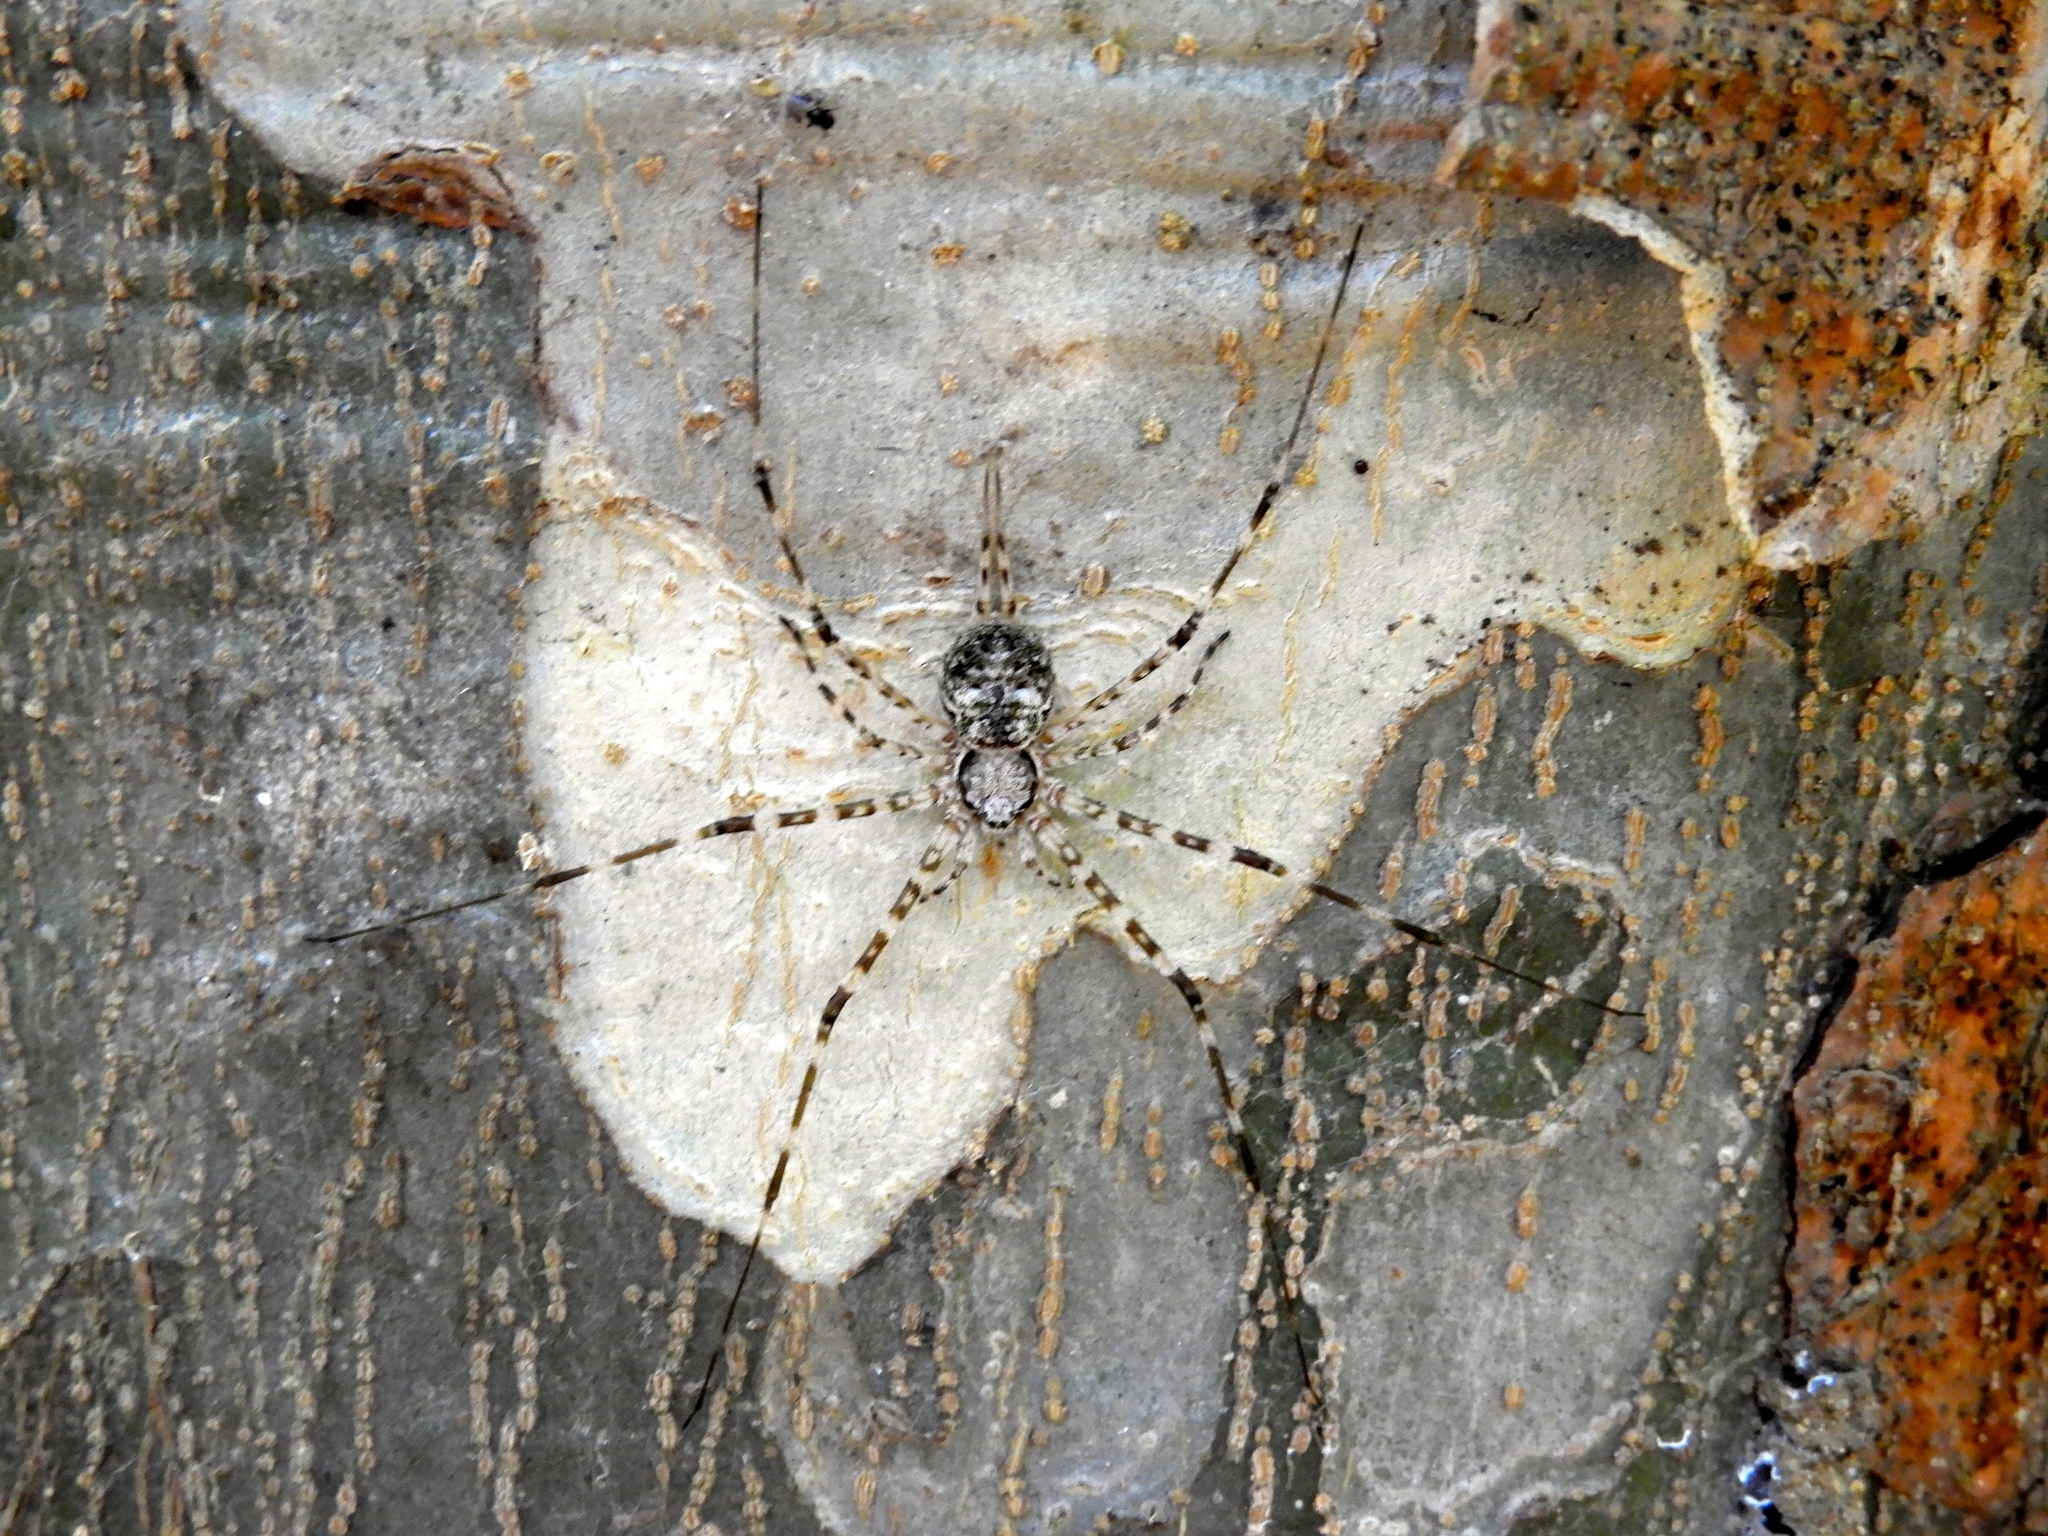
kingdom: Animalia
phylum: Arthropoda
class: Arachnida
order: Araneae
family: Hersiliidae
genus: Neotama
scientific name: Neotama mexicana
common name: Tree trunk spiders
